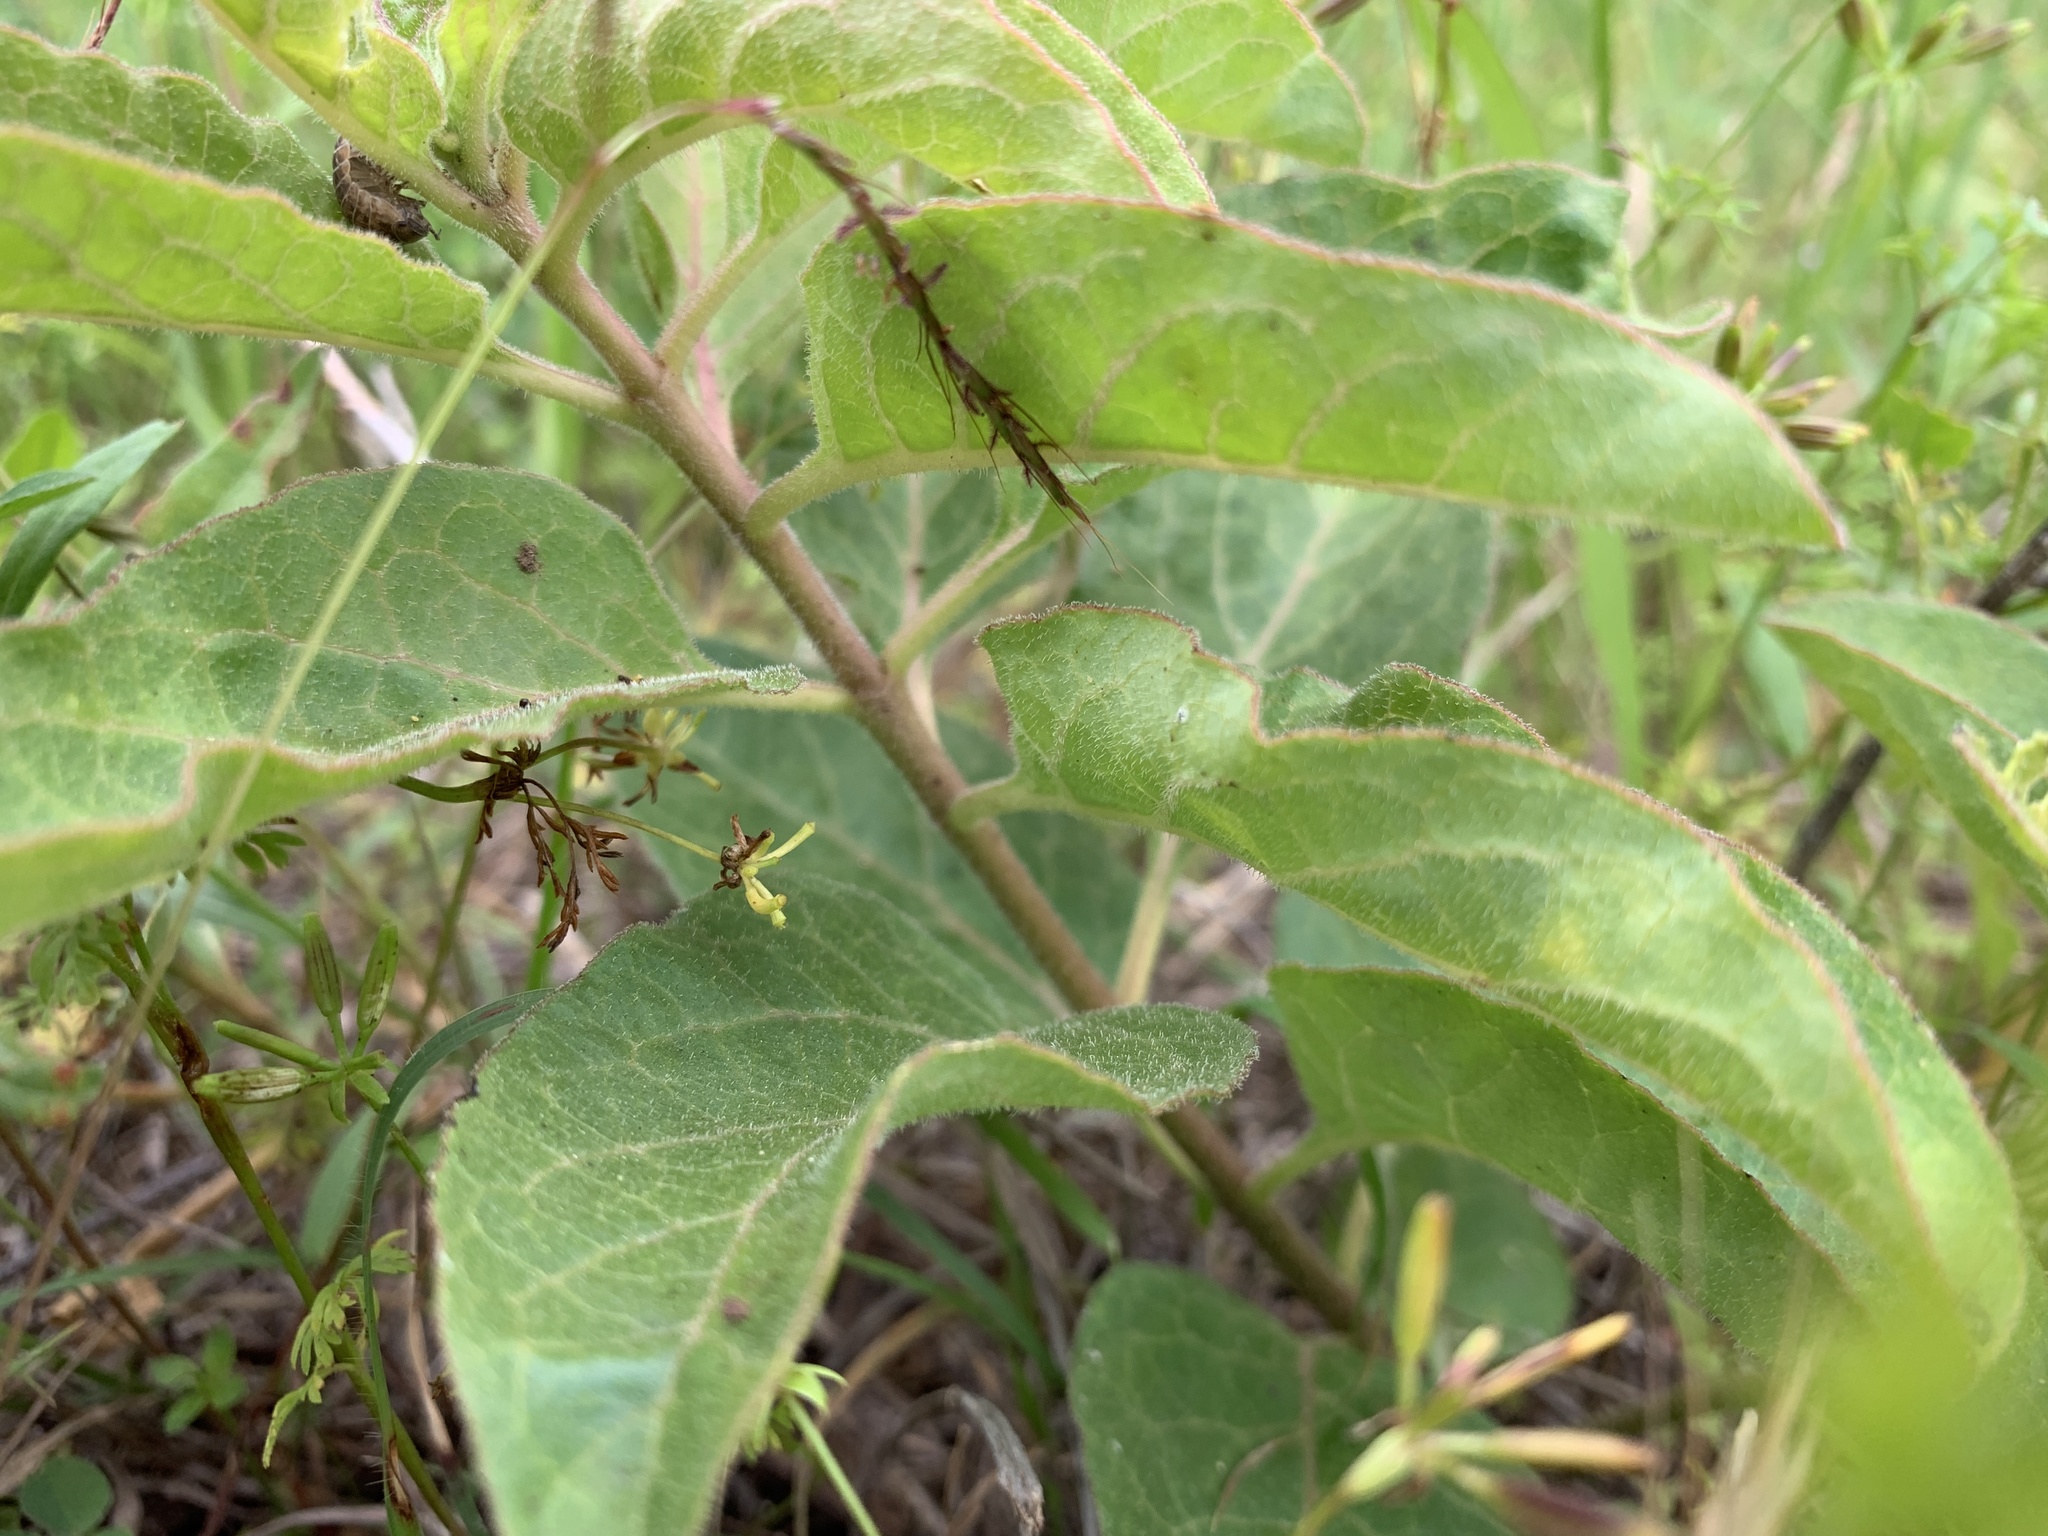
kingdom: Plantae
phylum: Tracheophyta
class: Magnoliopsida
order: Gentianales
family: Apocynaceae
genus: Asclepias
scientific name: Asclepias oenotheroides
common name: Zizotes milkweed
